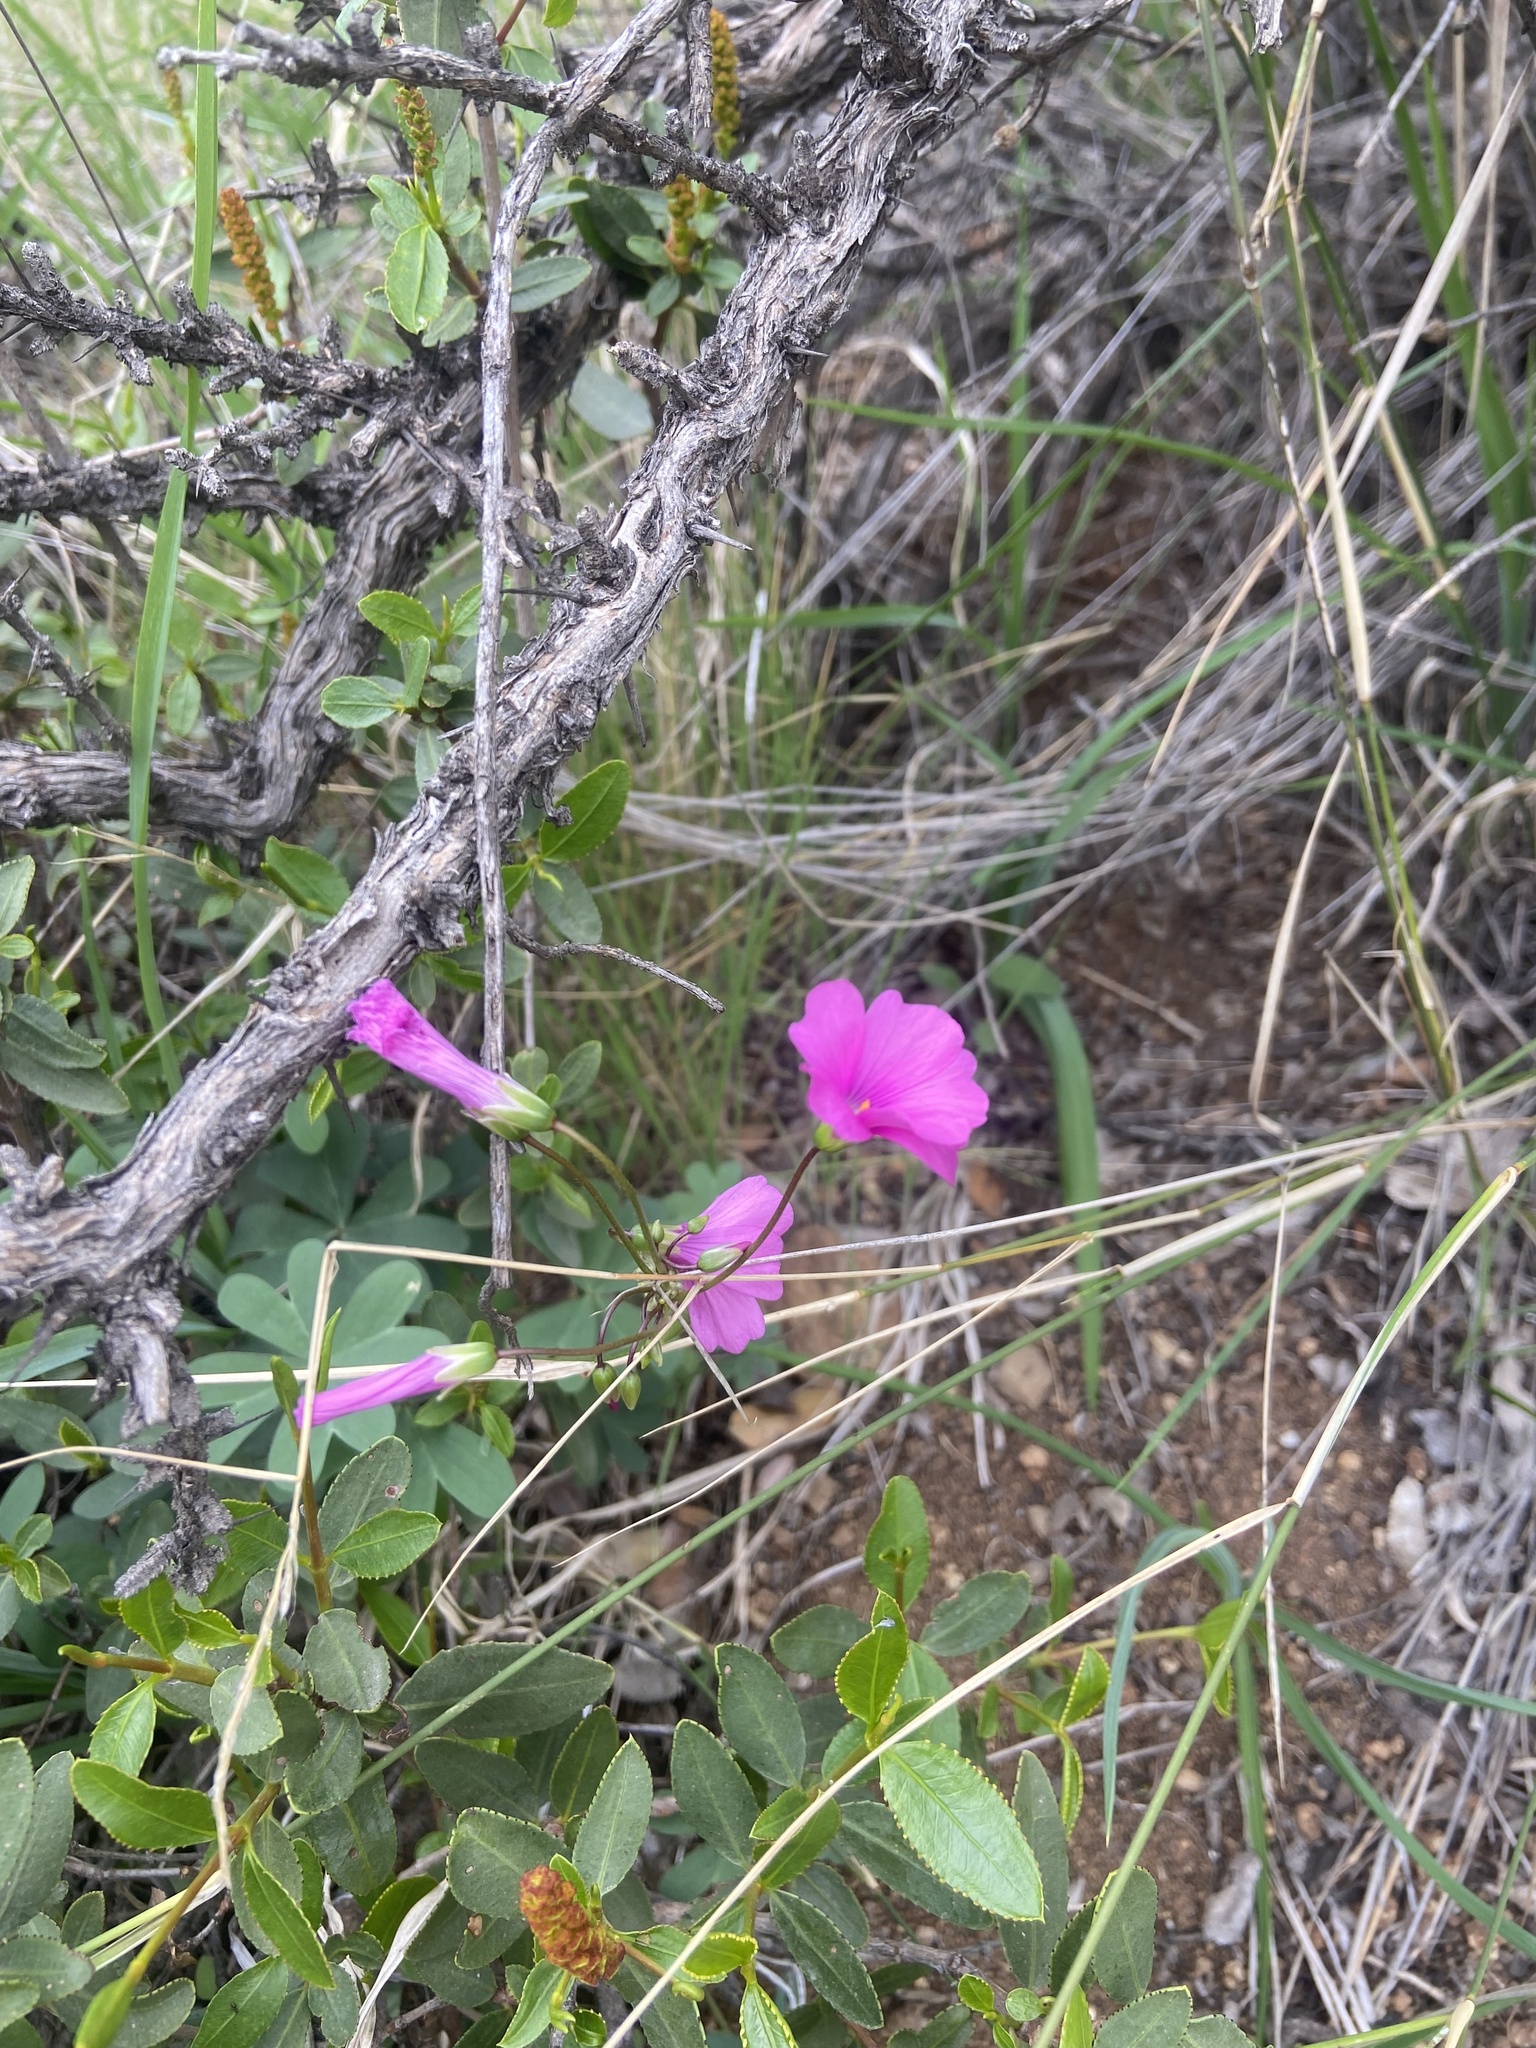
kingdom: Plantae
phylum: Tracheophyta
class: Magnoliopsida
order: Oxalidales
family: Oxalidaceae
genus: Oxalis
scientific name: Oxalis arenaria
